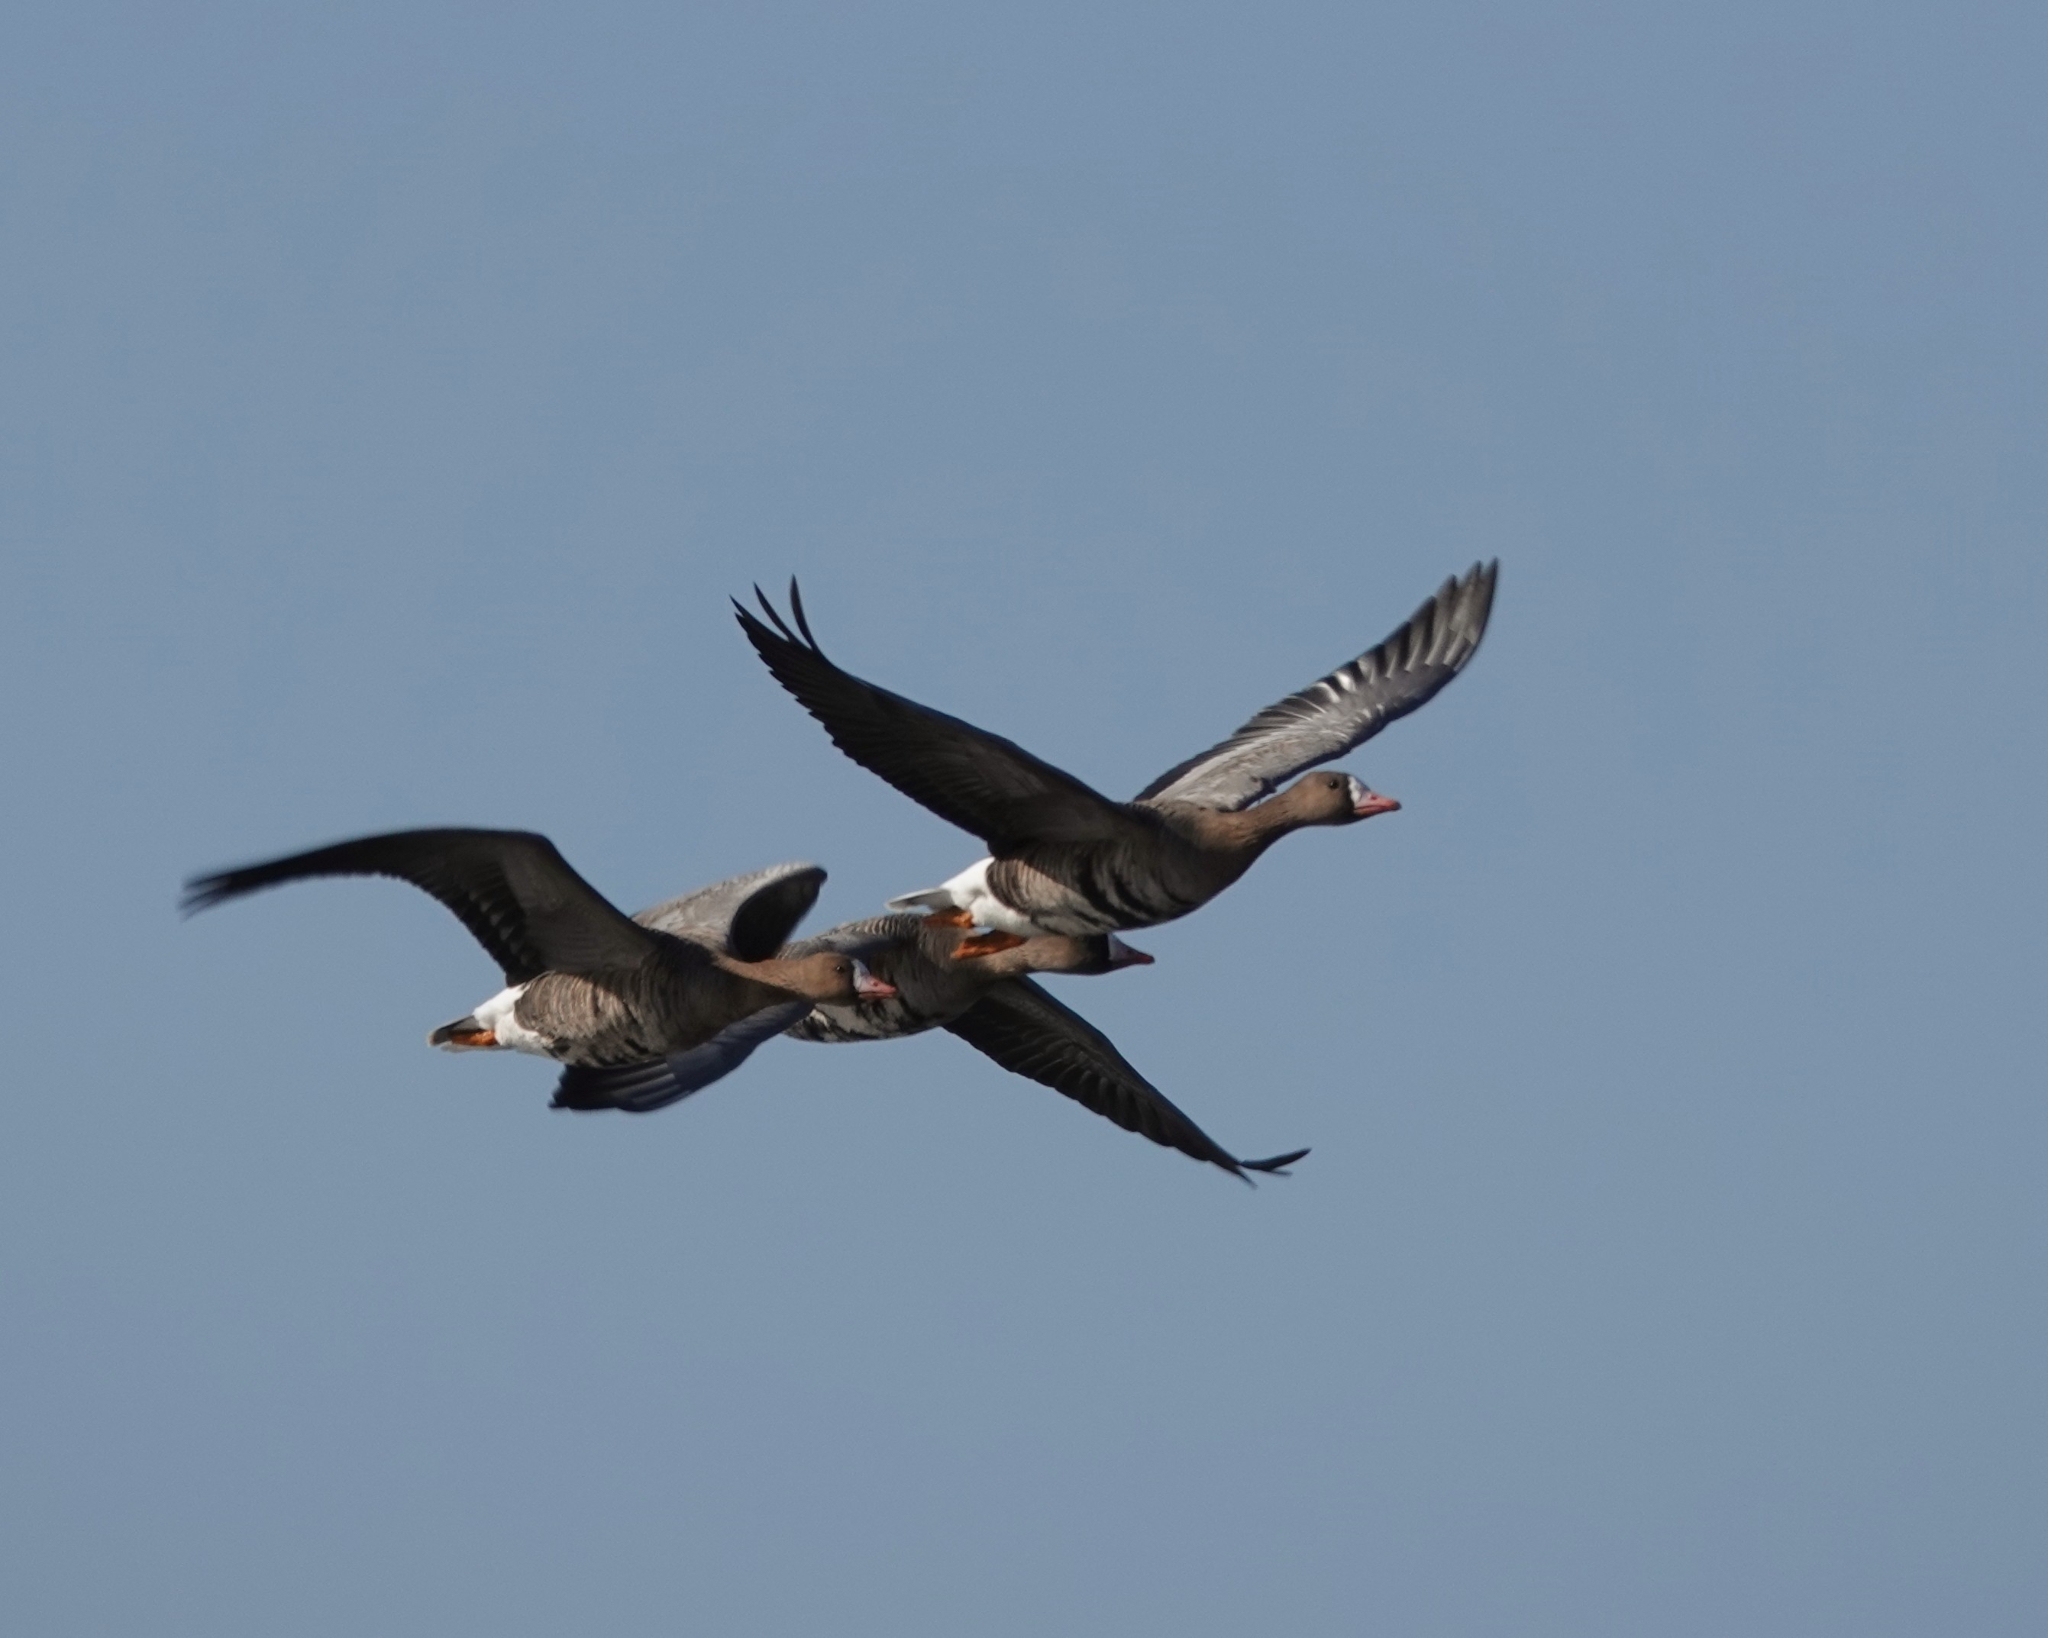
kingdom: Animalia
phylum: Chordata
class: Aves
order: Anseriformes
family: Anatidae
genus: Anser
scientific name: Anser albifrons
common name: Greater white-fronted goose
